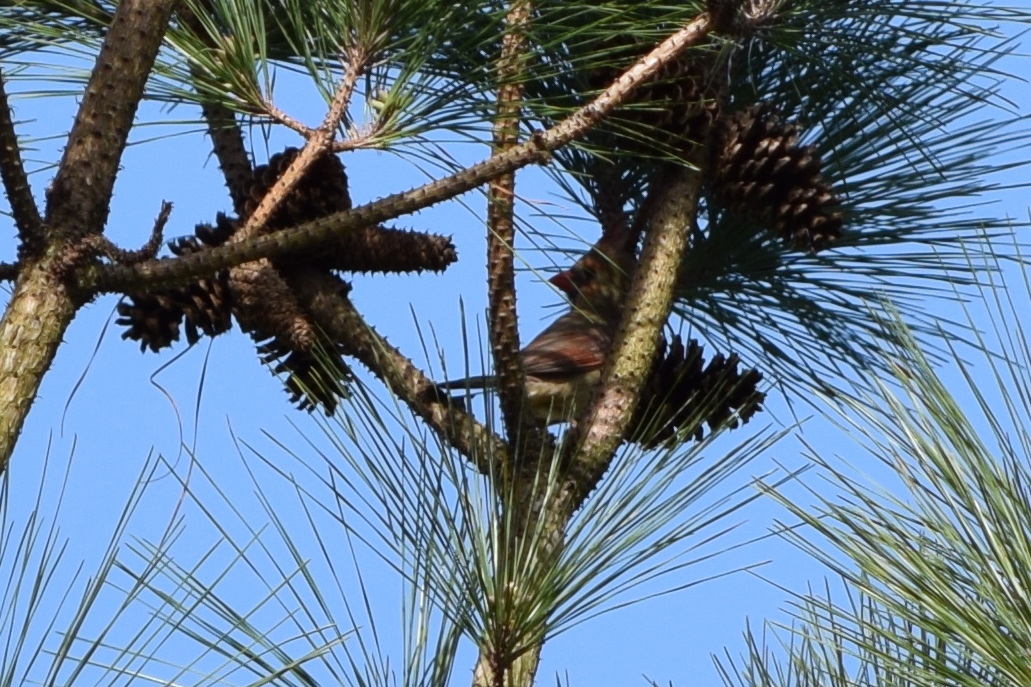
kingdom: Animalia
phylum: Chordata
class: Aves
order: Passeriformes
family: Cardinalidae
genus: Cardinalis
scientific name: Cardinalis cardinalis
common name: Northern cardinal
